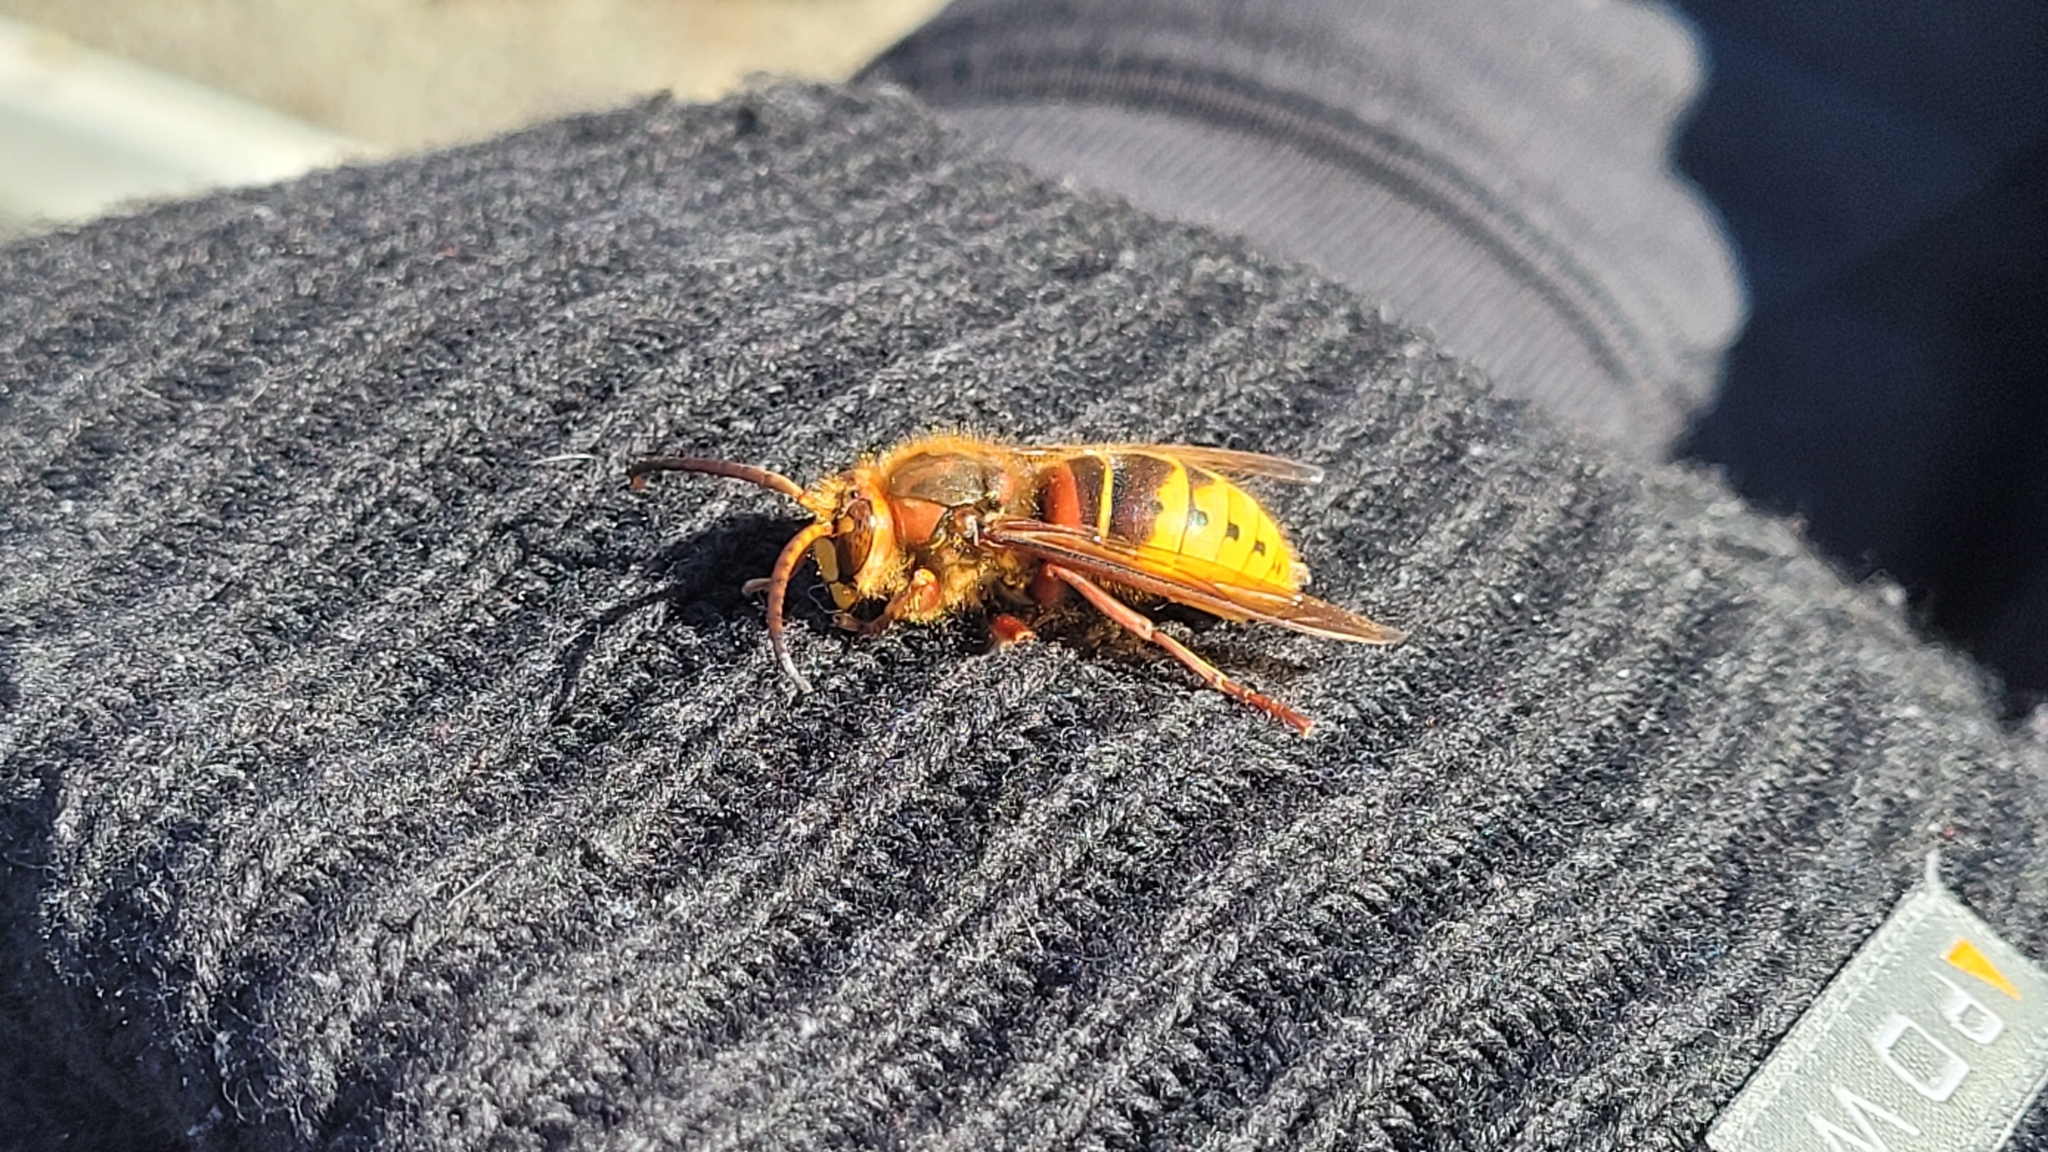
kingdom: Animalia
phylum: Arthropoda
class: Insecta
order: Hymenoptera
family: Vespidae
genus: Vespa
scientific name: Vespa crabro
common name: Hornet
